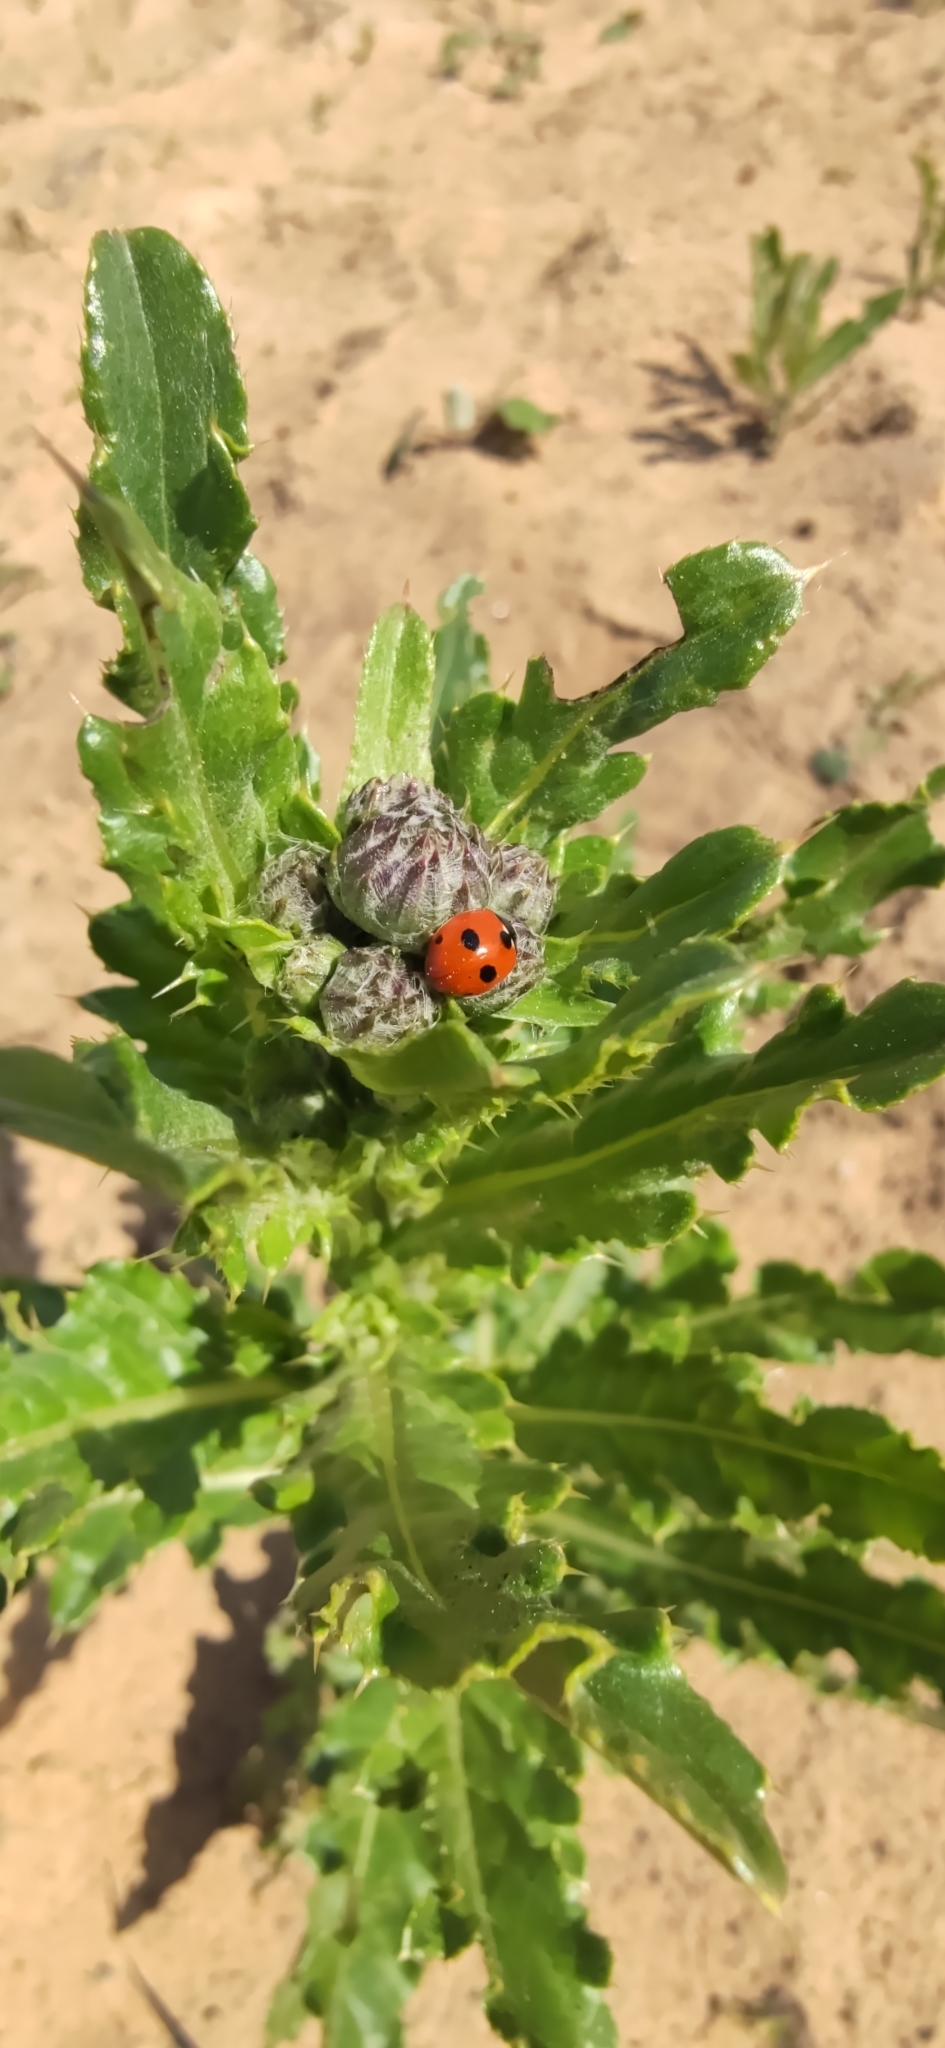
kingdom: Animalia
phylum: Arthropoda
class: Insecta
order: Coleoptera
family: Coccinellidae
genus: Coccinella
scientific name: Coccinella quinquepunctata
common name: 5-spot ladybird
